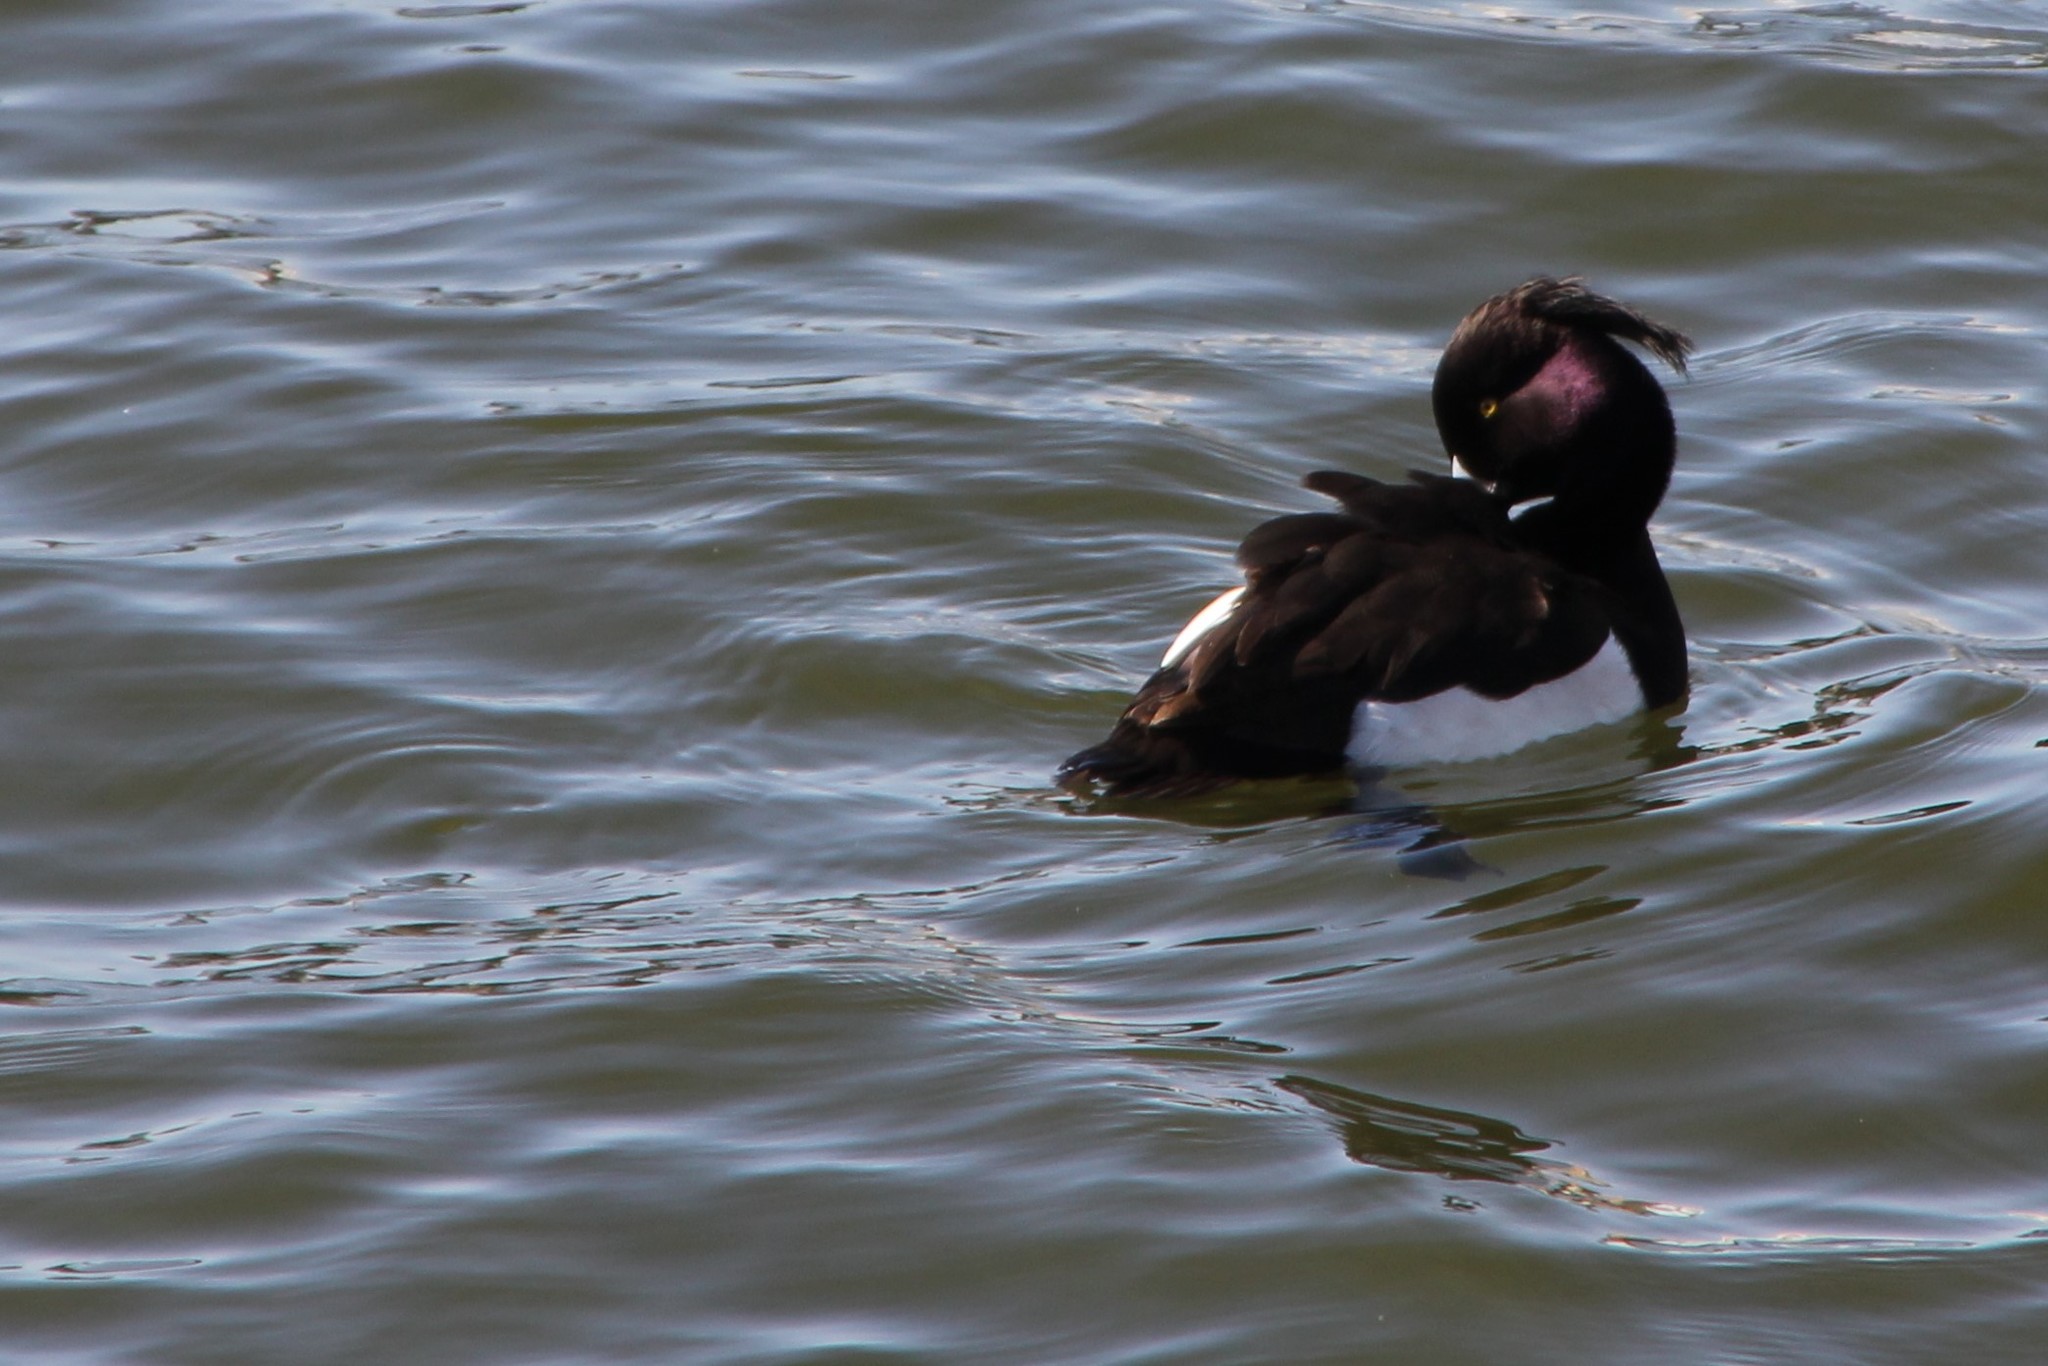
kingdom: Animalia
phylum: Chordata
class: Aves
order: Anseriformes
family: Anatidae
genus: Aythya
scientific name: Aythya fuligula
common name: Tufted duck
